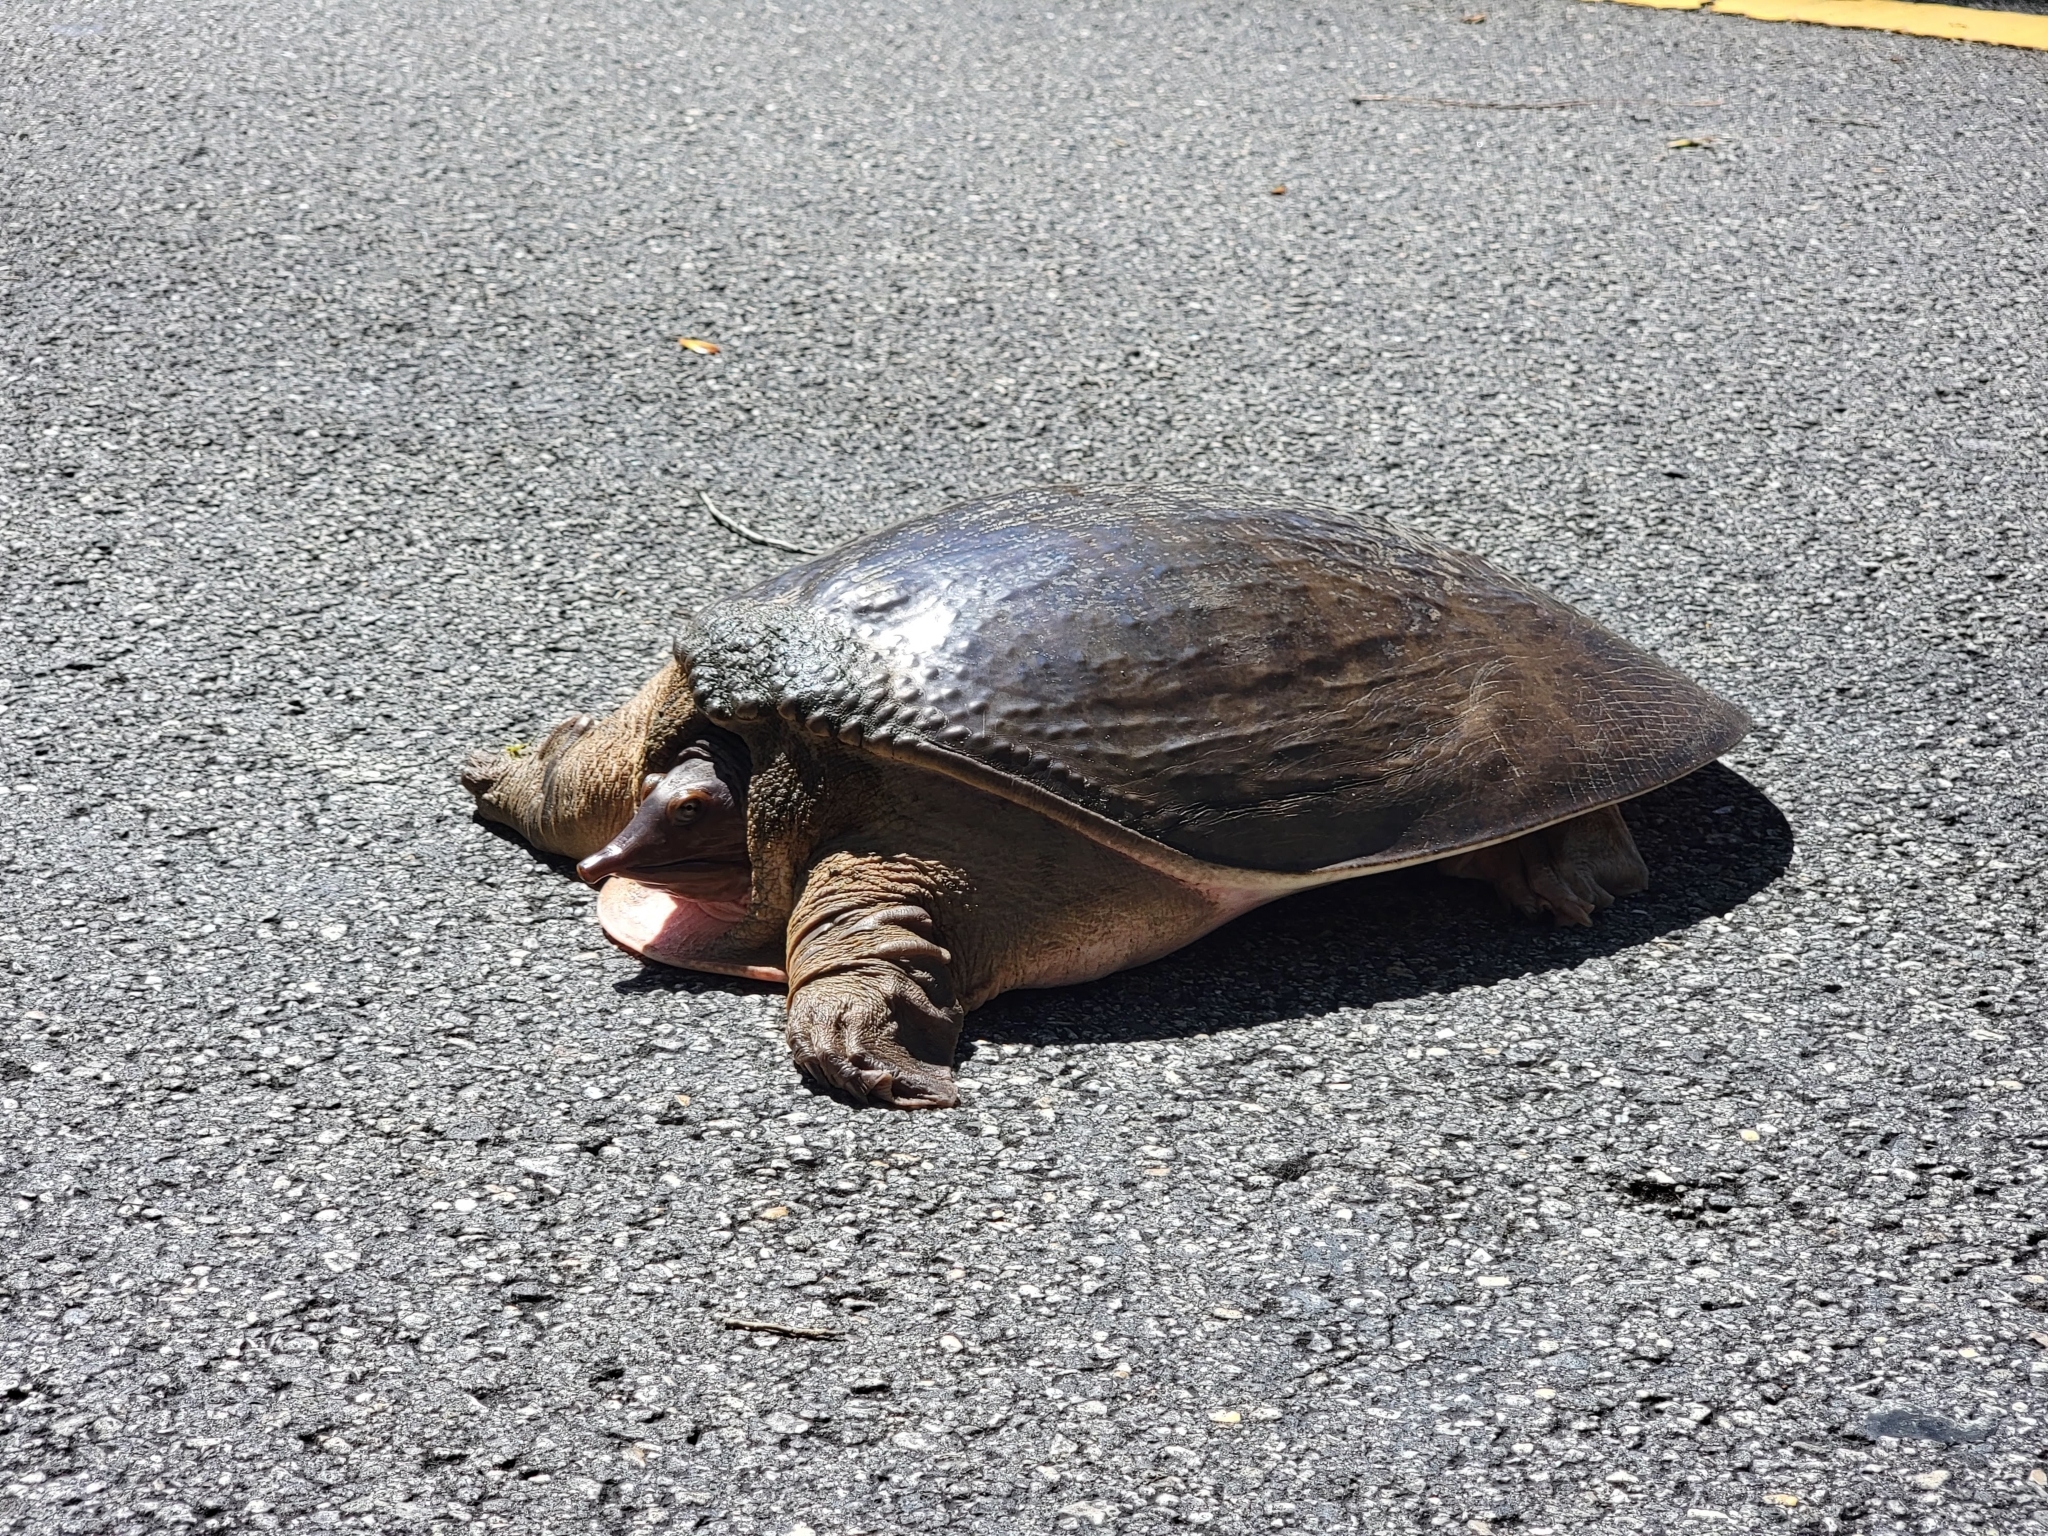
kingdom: Animalia
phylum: Chordata
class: Testudines
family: Trionychidae
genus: Apalone
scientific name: Apalone ferox
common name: Florida softshell turtle
